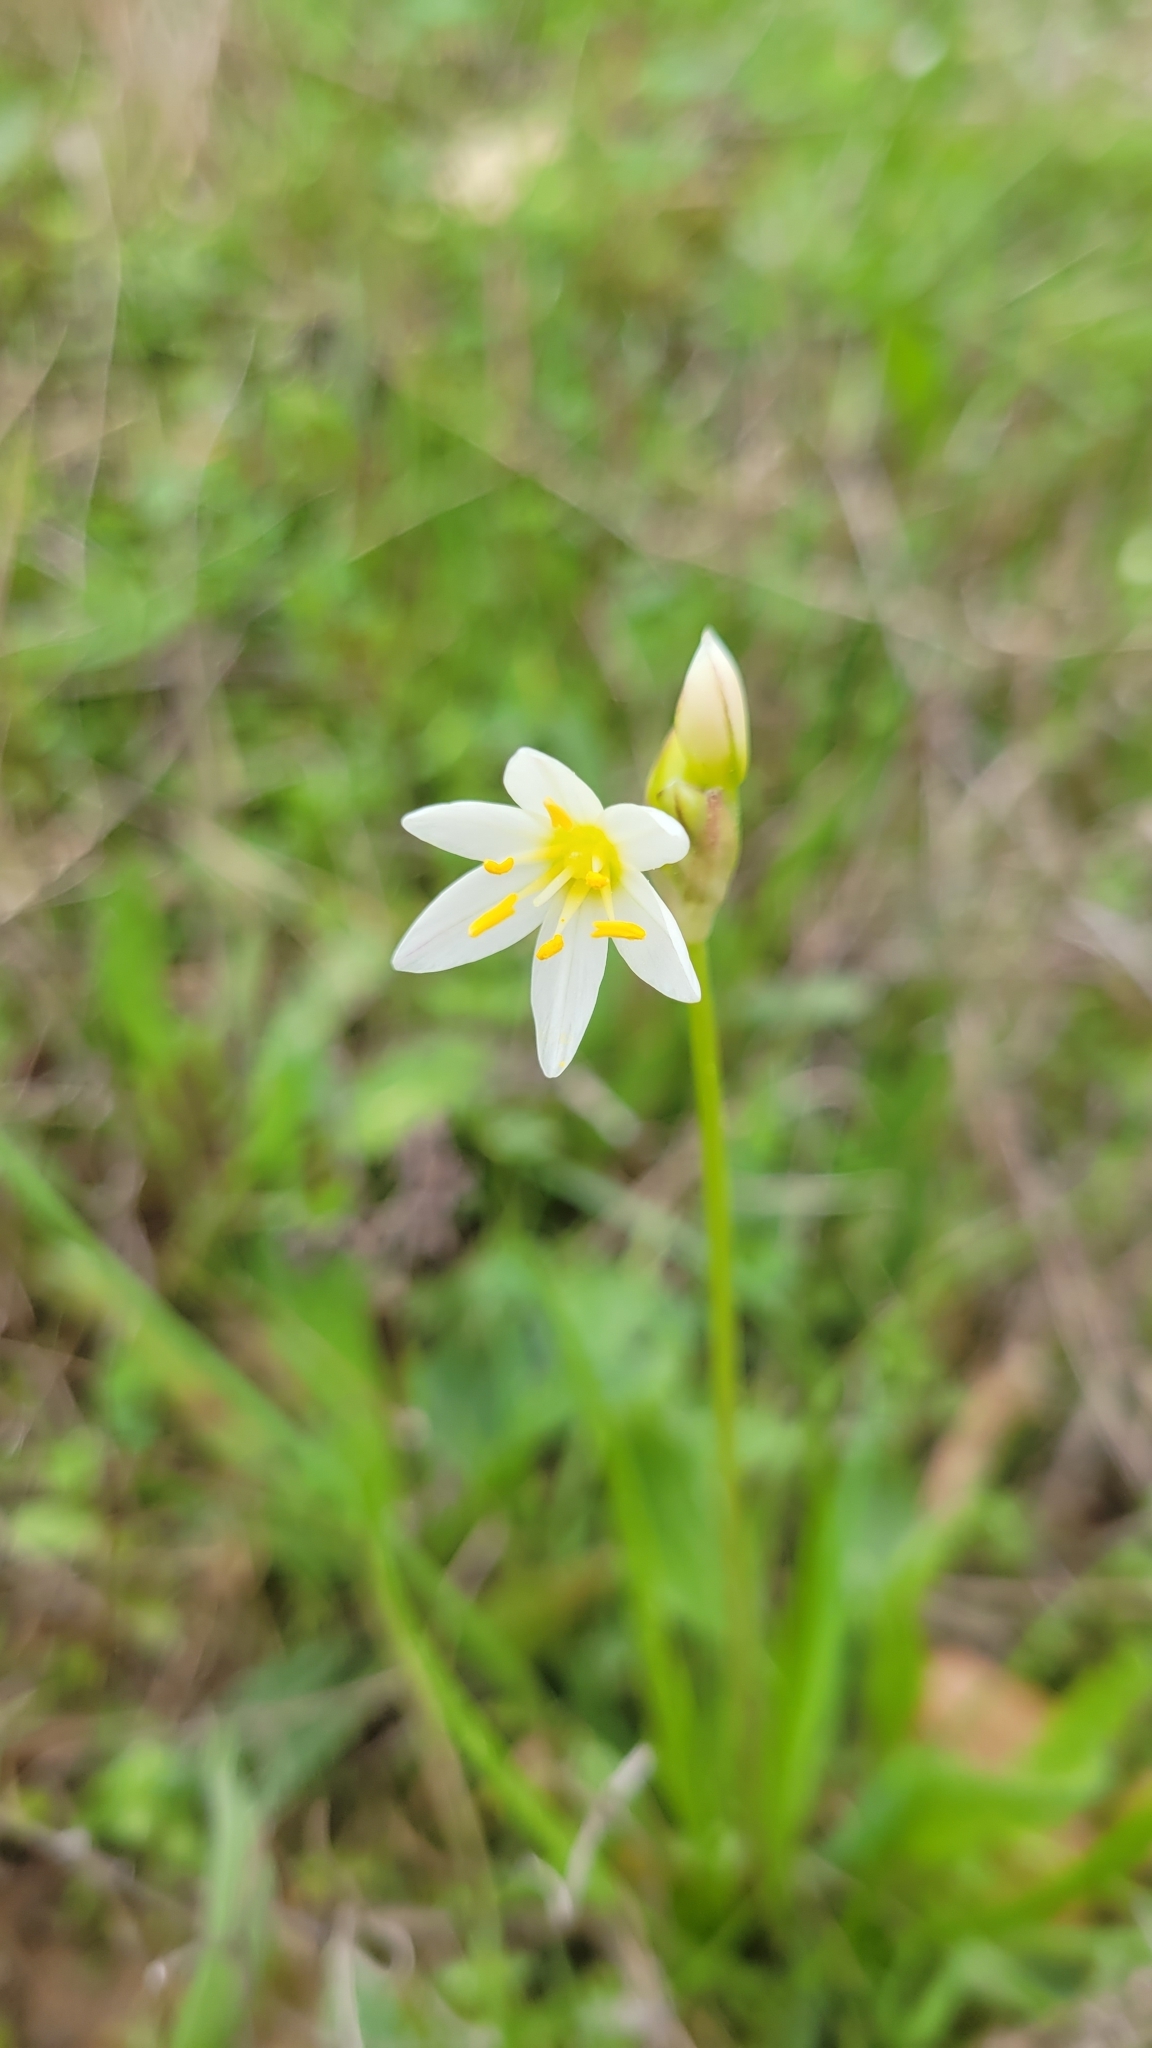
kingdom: Plantae
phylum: Tracheophyta
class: Liliopsida
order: Asparagales
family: Amaryllidaceae
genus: Nothoscordum
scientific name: Nothoscordum bivalve
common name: Crow-poison
